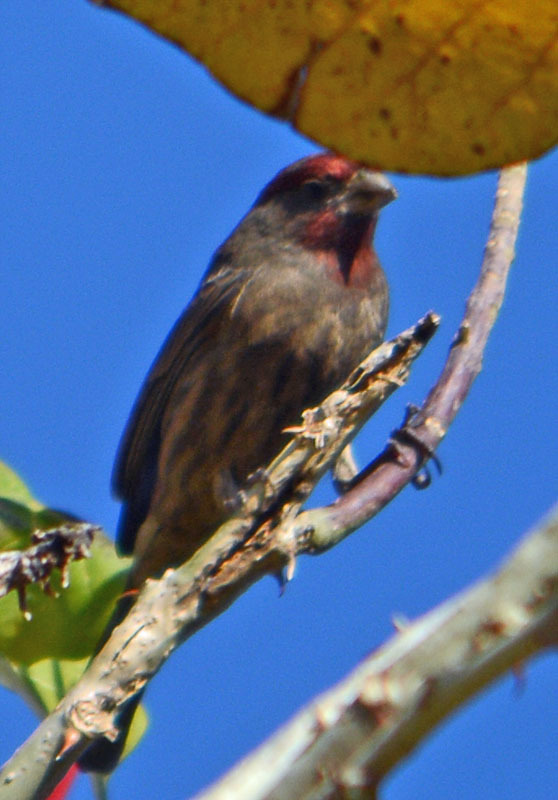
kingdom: Animalia
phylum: Chordata
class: Aves
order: Passeriformes
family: Fringillidae
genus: Haemorhous
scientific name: Haemorhous mexicanus
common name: House finch
